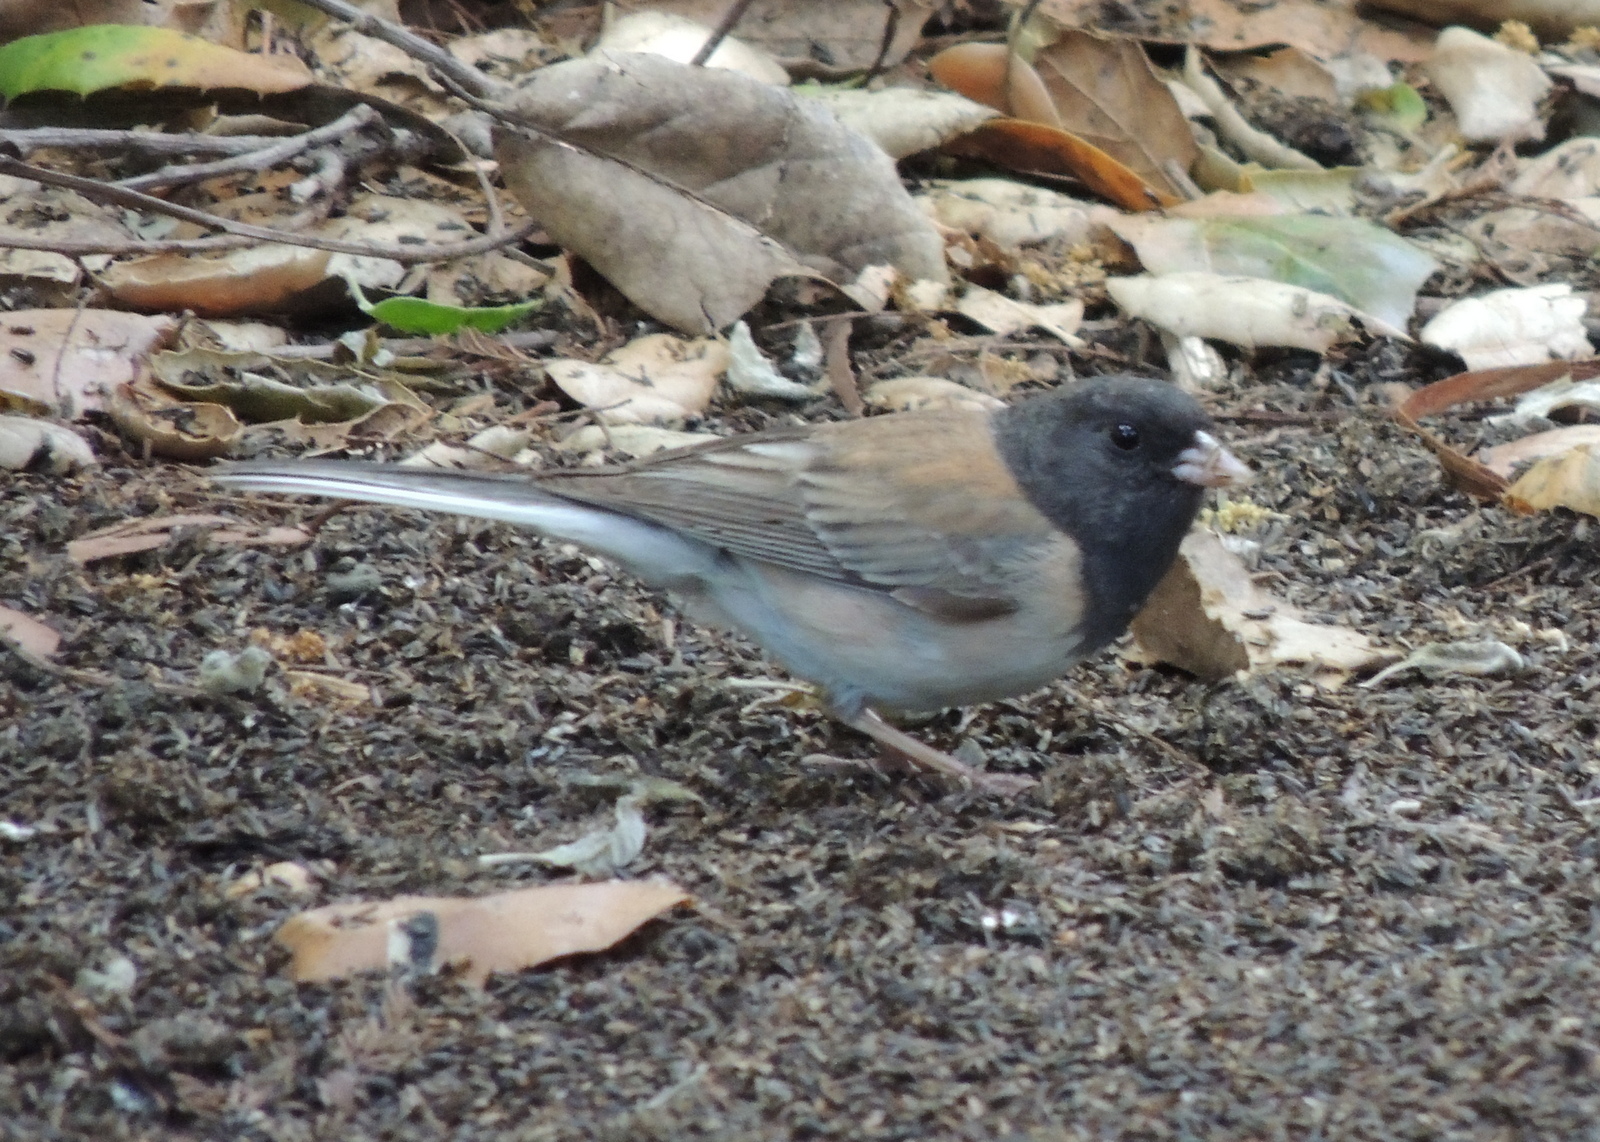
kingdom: Animalia
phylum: Chordata
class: Aves
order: Passeriformes
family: Passerellidae
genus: Junco
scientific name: Junco hyemalis
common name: Dark-eyed junco
